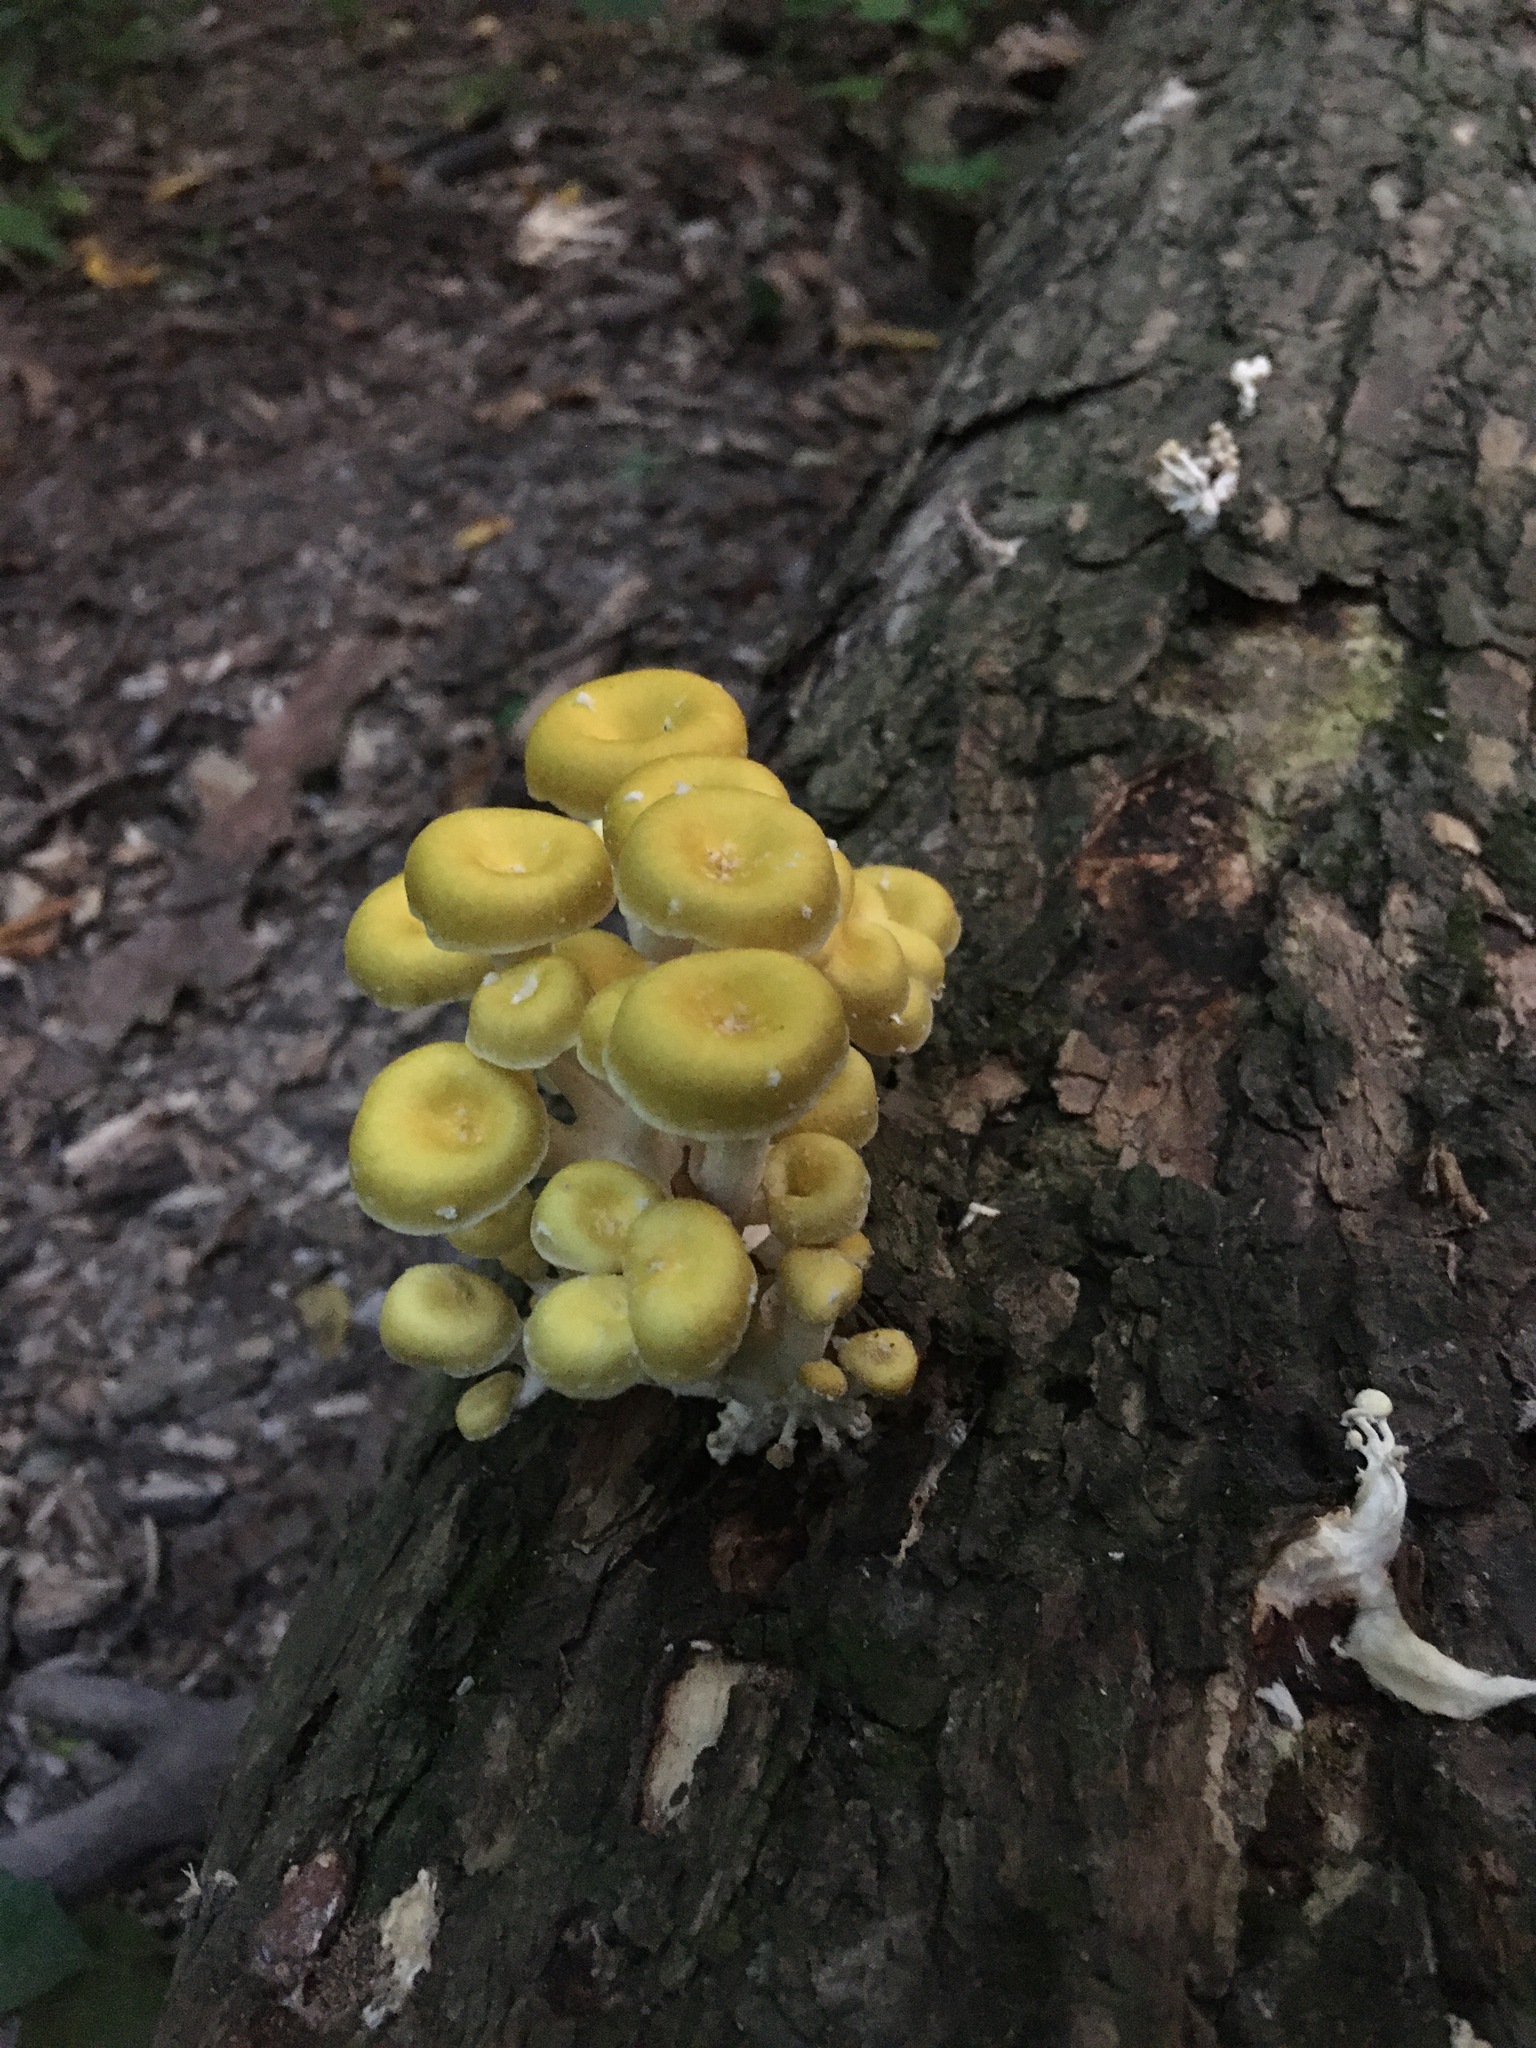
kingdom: Fungi
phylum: Basidiomycota
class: Agaricomycetes
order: Agaricales
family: Pleurotaceae
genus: Pleurotus
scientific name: Pleurotus citrinopileatus
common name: Golden oyster mushroom
